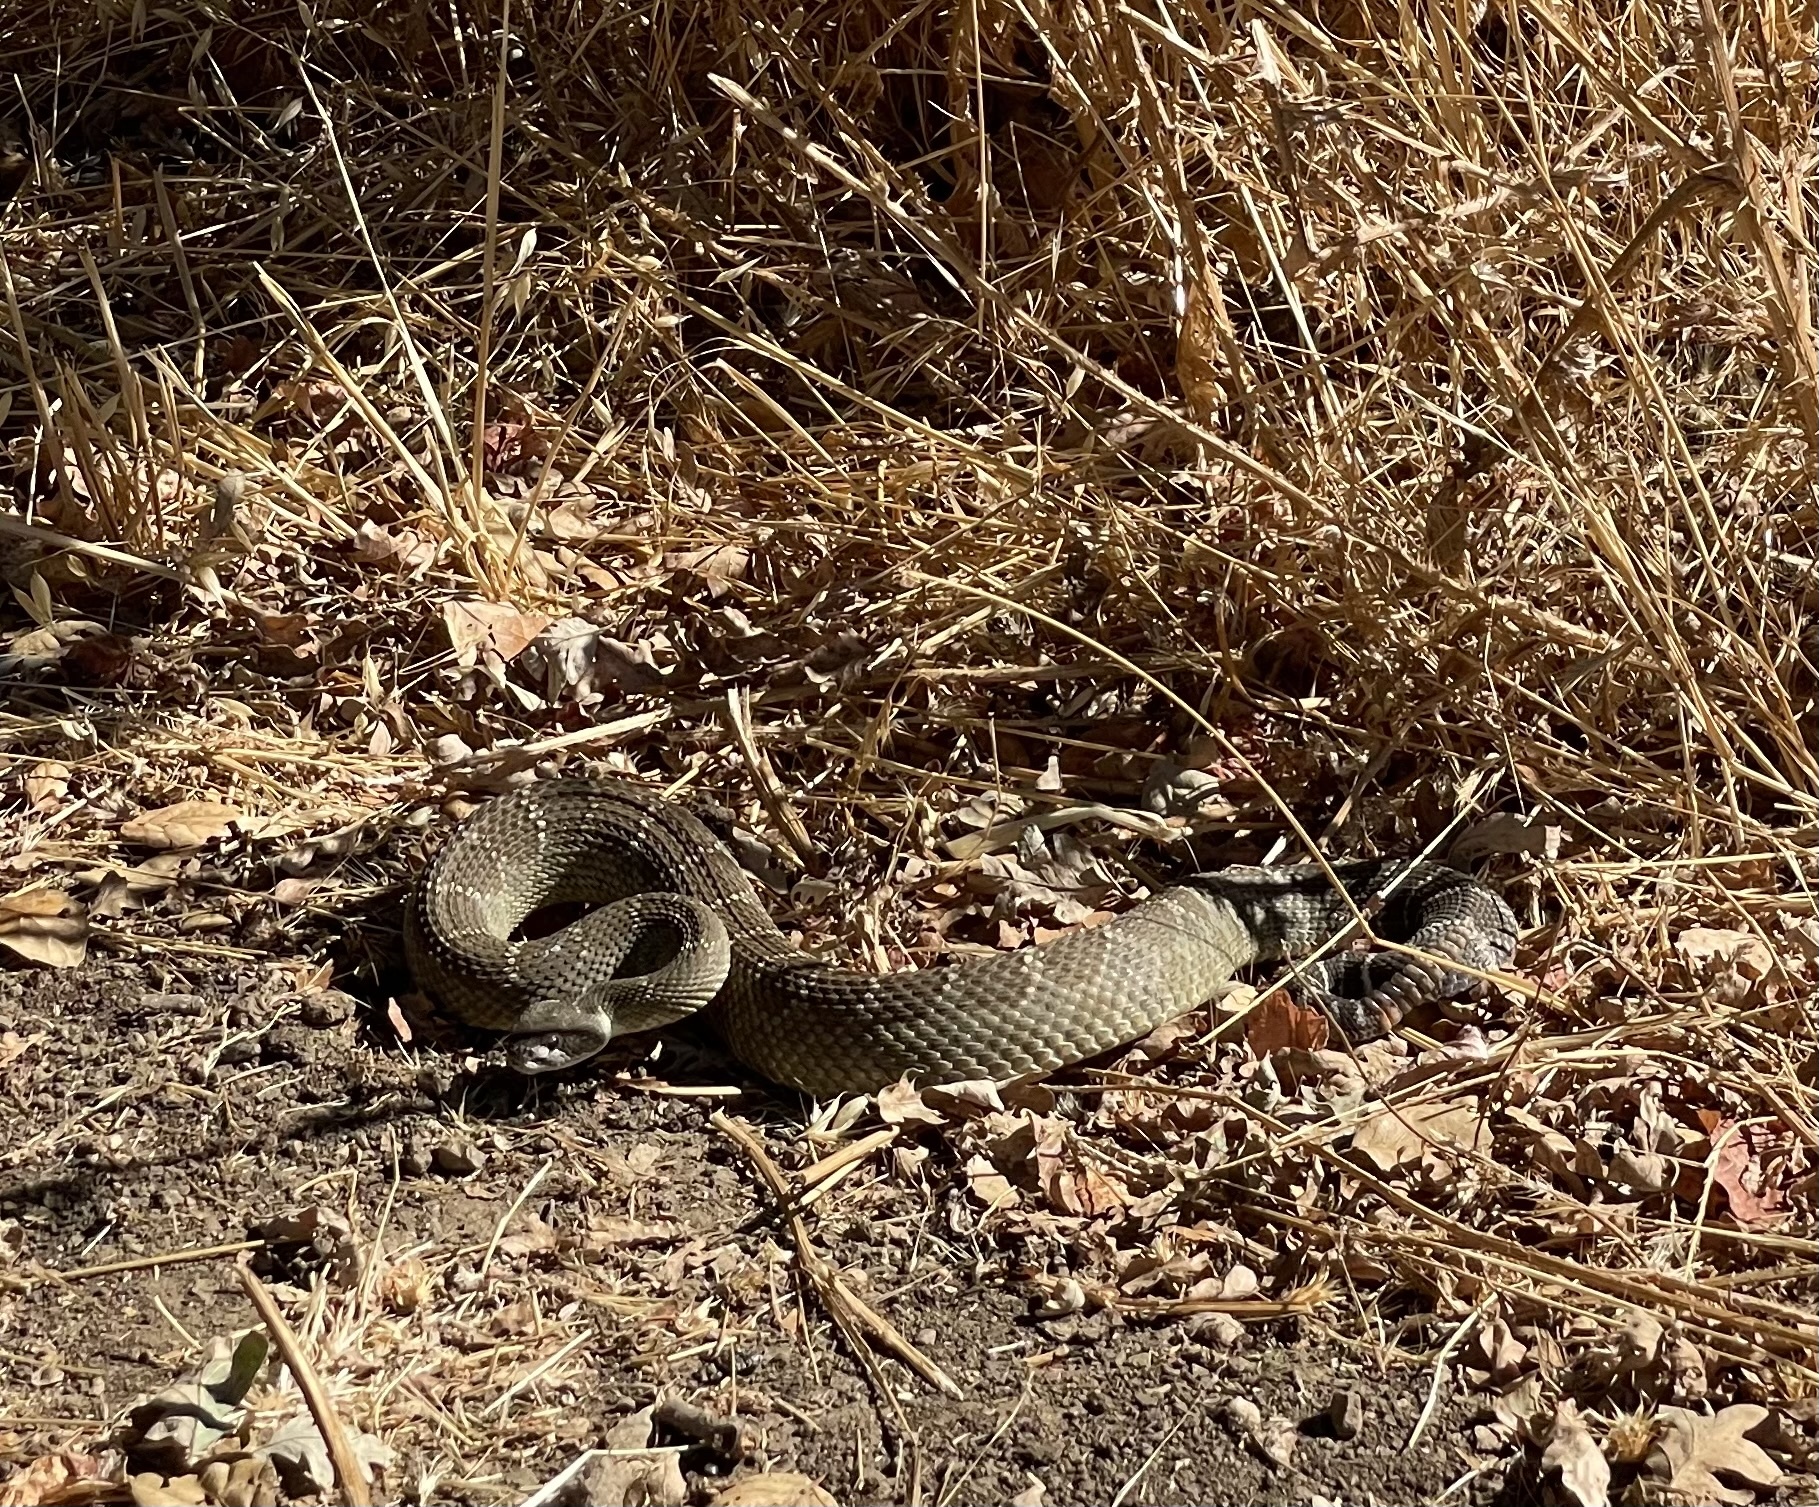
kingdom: Animalia
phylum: Chordata
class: Squamata
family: Viperidae
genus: Crotalus
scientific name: Crotalus oreganus
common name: Abyssus
